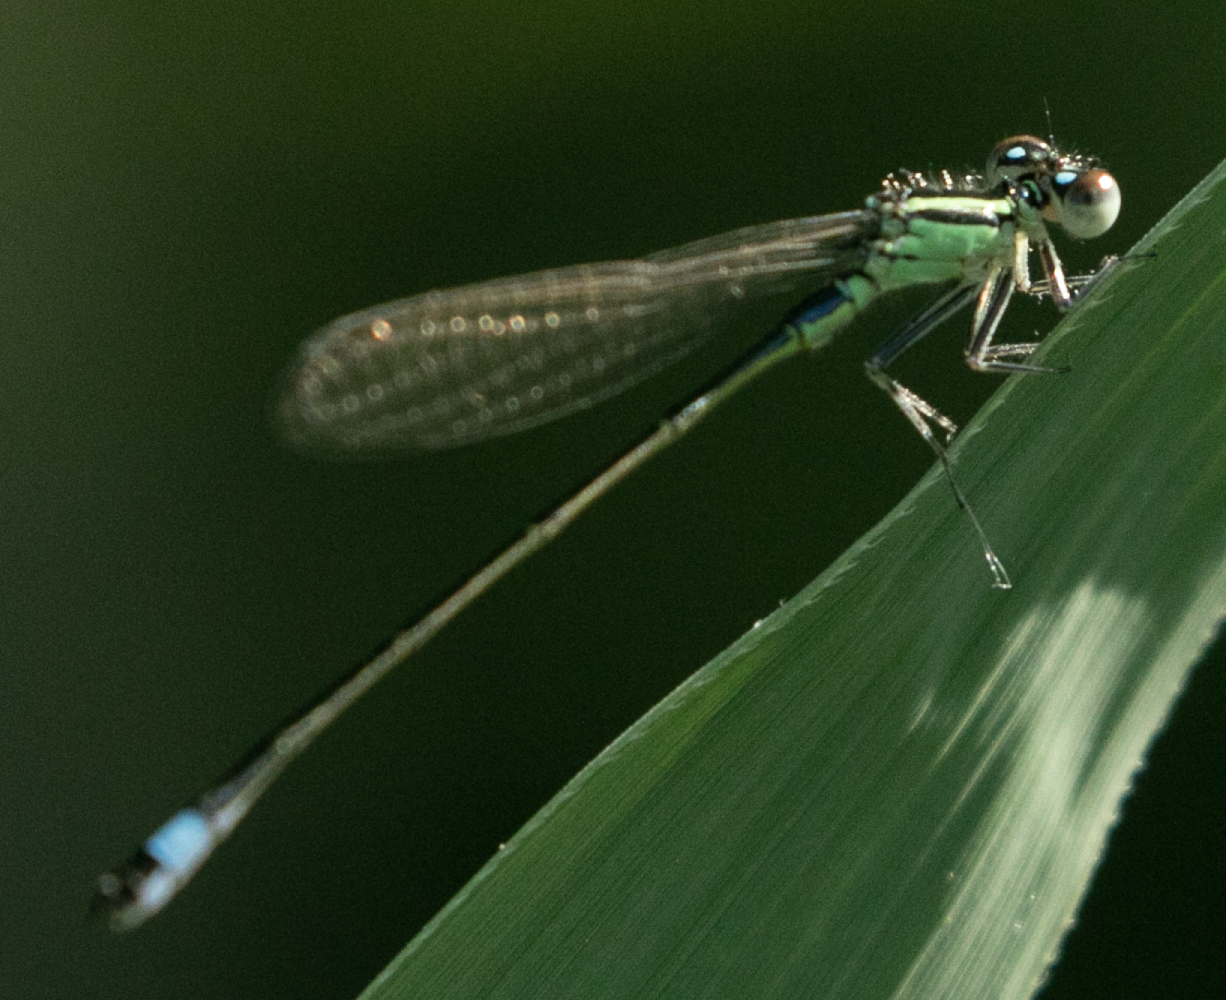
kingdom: Animalia
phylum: Arthropoda
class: Insecta
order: Odonata
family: Coenagrionidae
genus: Ischnura
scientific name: Ischnura elegans
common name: Blue-tailed damselfly
